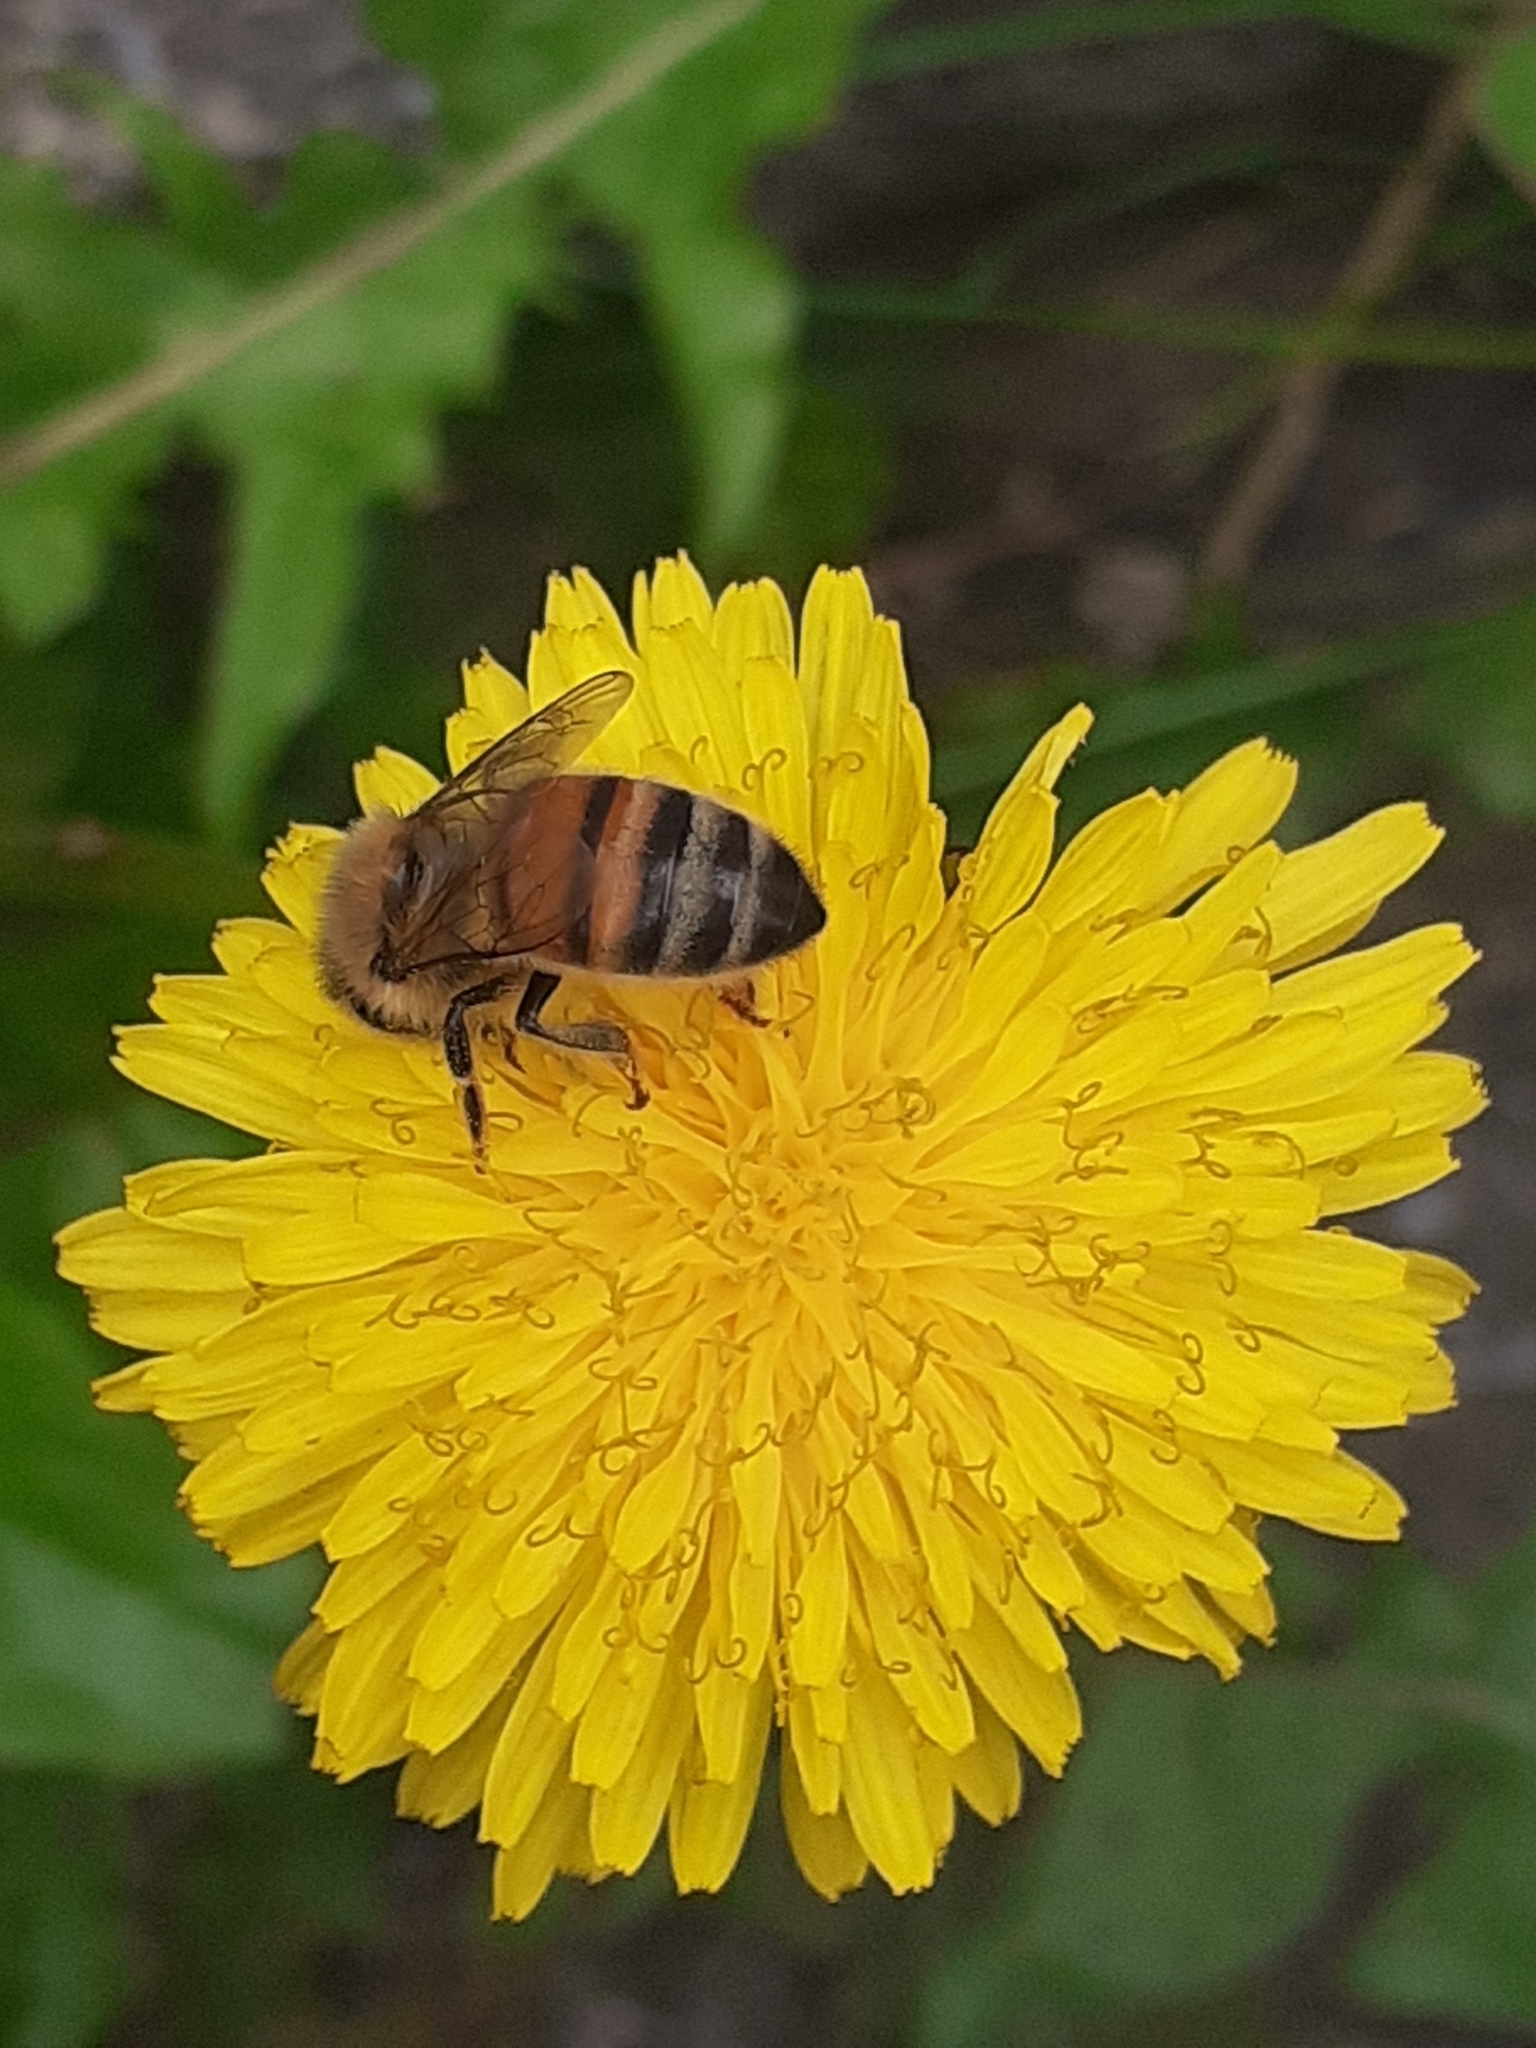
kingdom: Animalia
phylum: Arthropoda
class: Insecta
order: Hymenoptera
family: Apidae
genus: Apis
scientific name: Apis mellifera
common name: Honey bee
